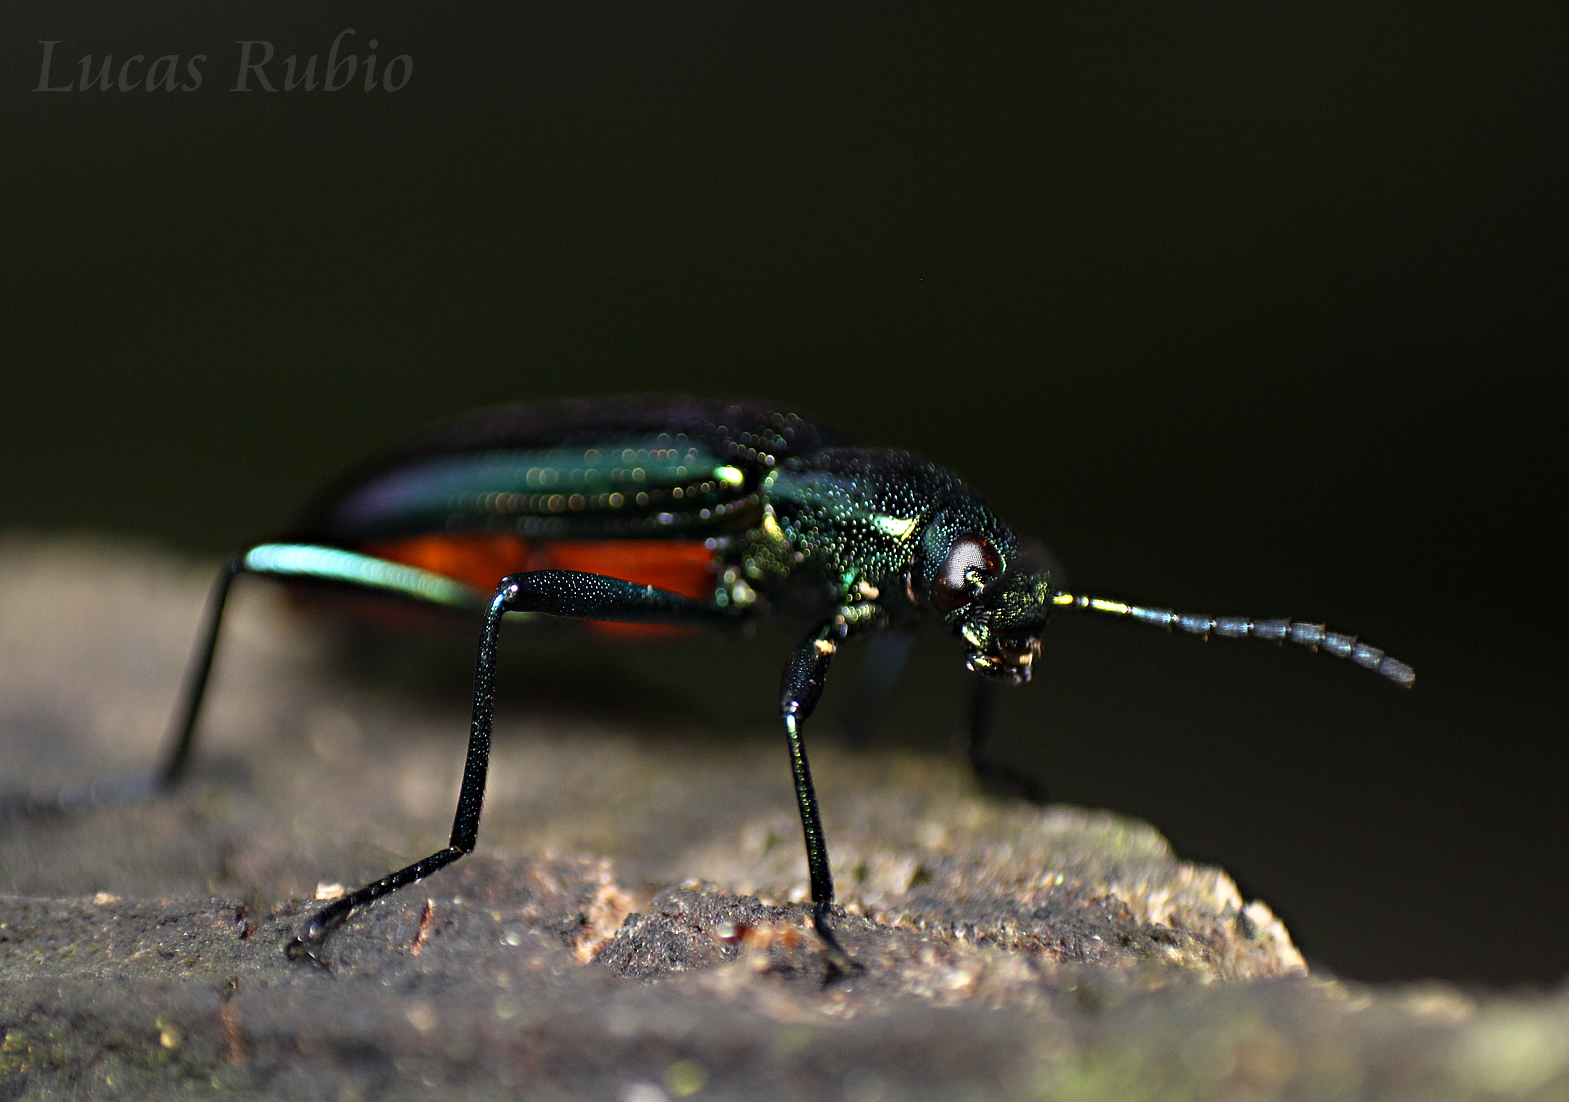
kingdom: Animalia
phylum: Arthropoda
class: Insecta
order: Coleoptera
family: Tenebrionidae
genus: Strongylium
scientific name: Strongylium
